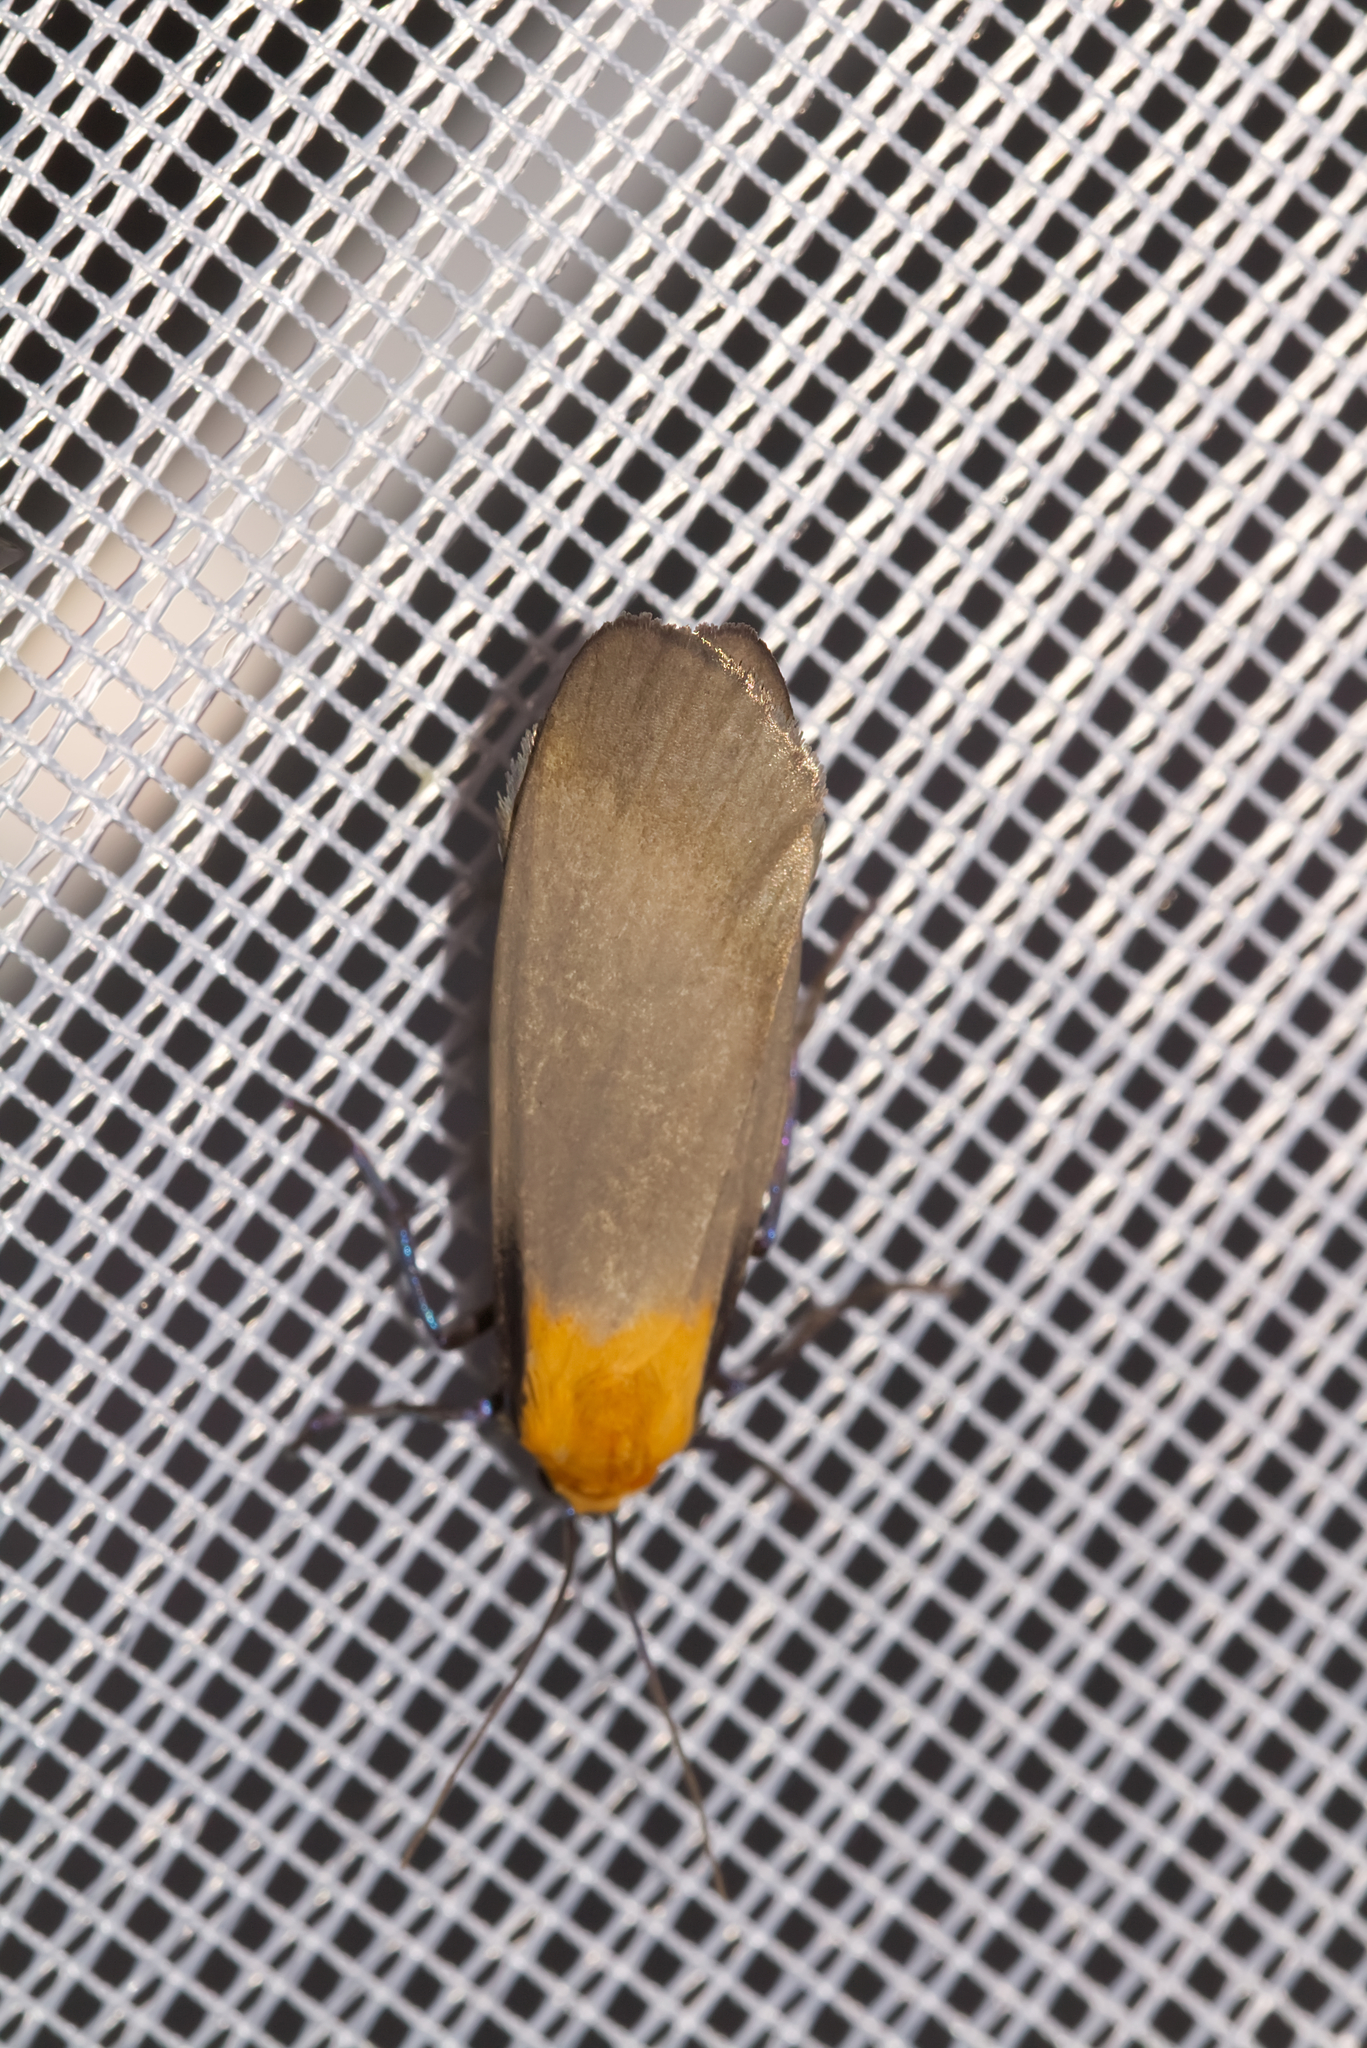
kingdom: Animalia
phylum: Arthropoda
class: Insecta
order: Lepidoptera
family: Erebidae
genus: Lithosia
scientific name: Lithosia quadra
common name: Four-spotted footman
